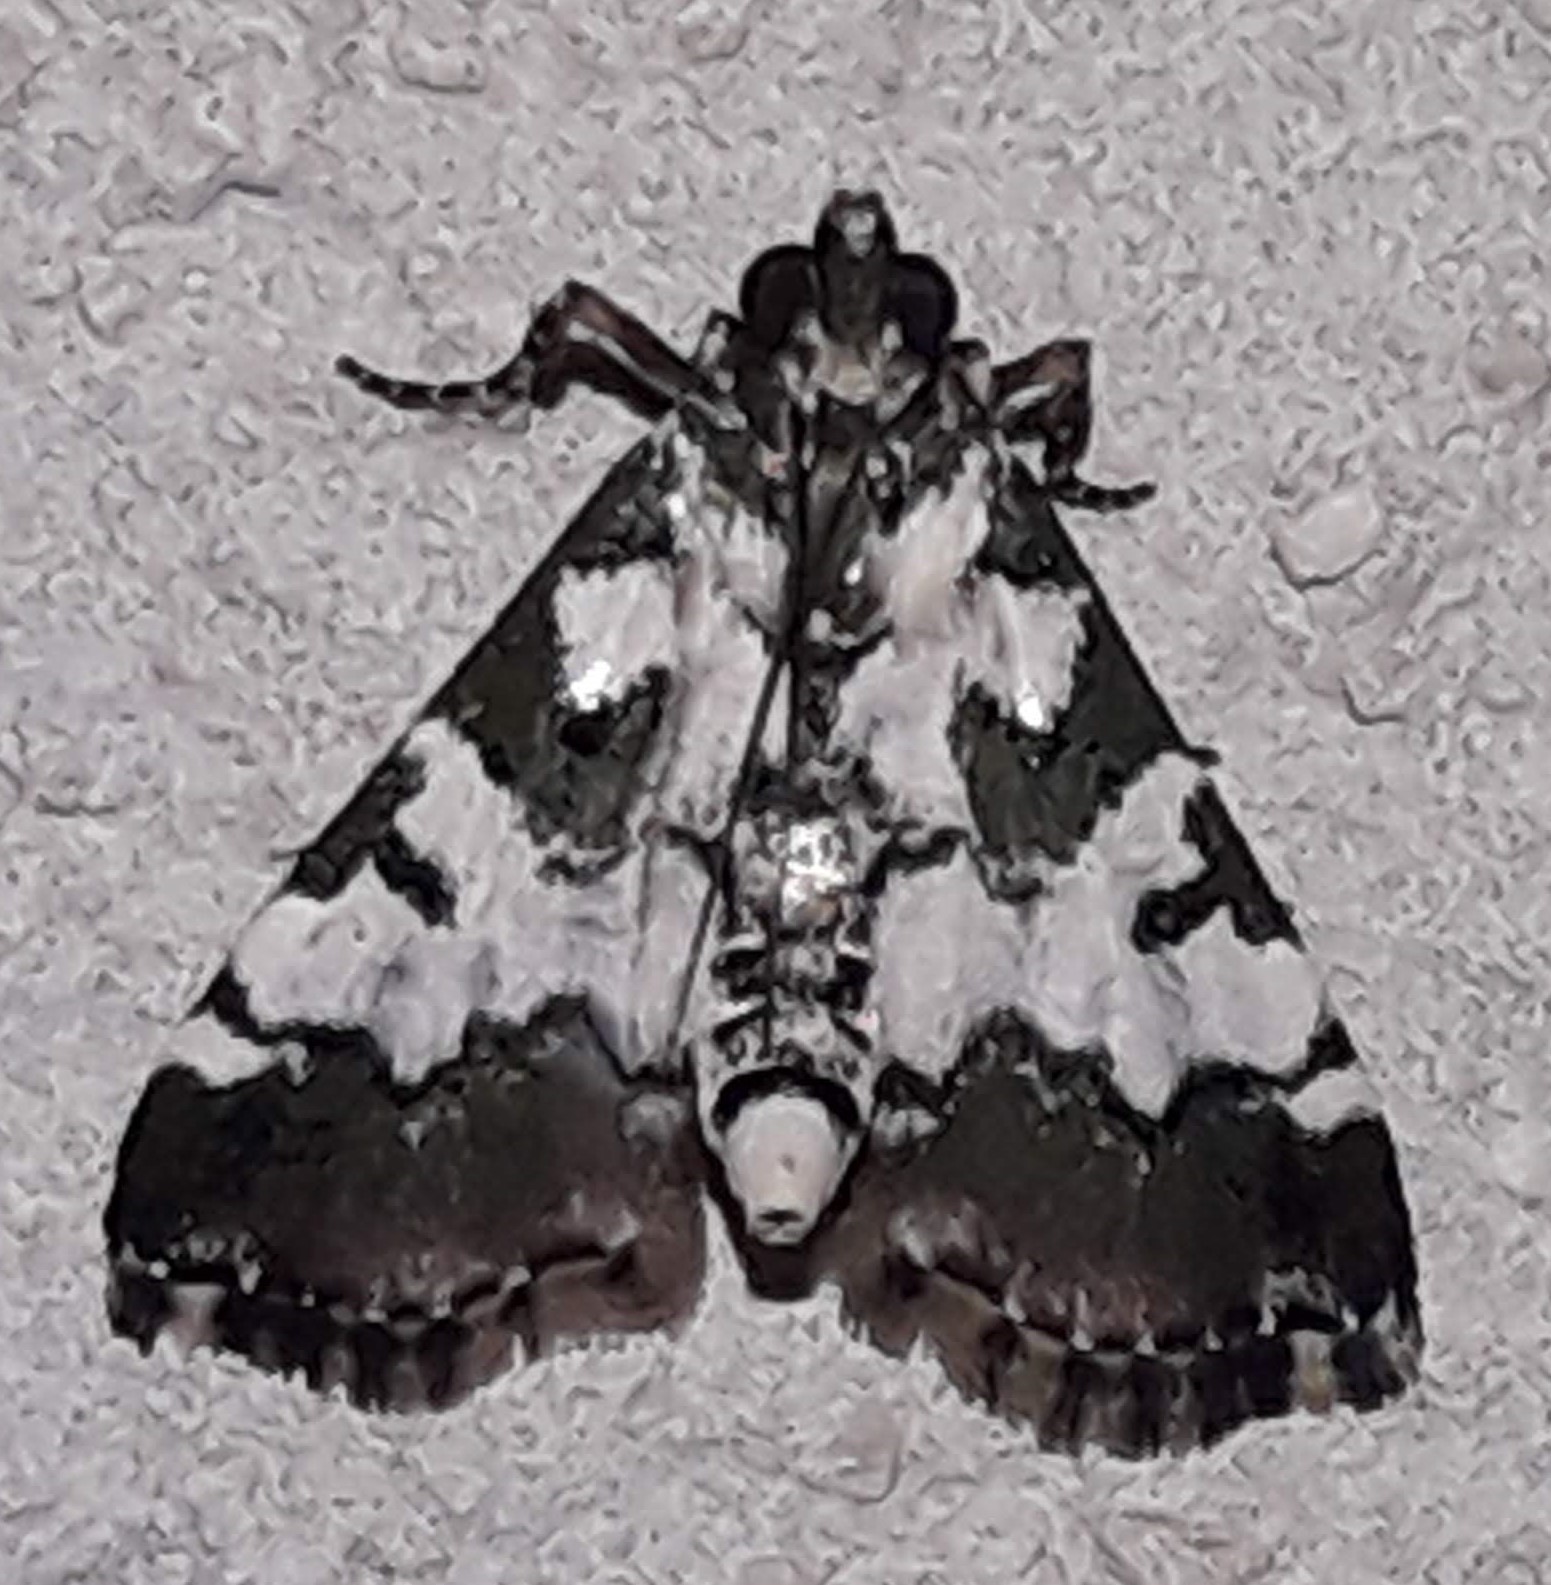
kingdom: Animalia
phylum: Arthropoda
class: Insecta
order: Lepidoptera
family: Pyralidae
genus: Milgithea
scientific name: Milgithea suramisa
